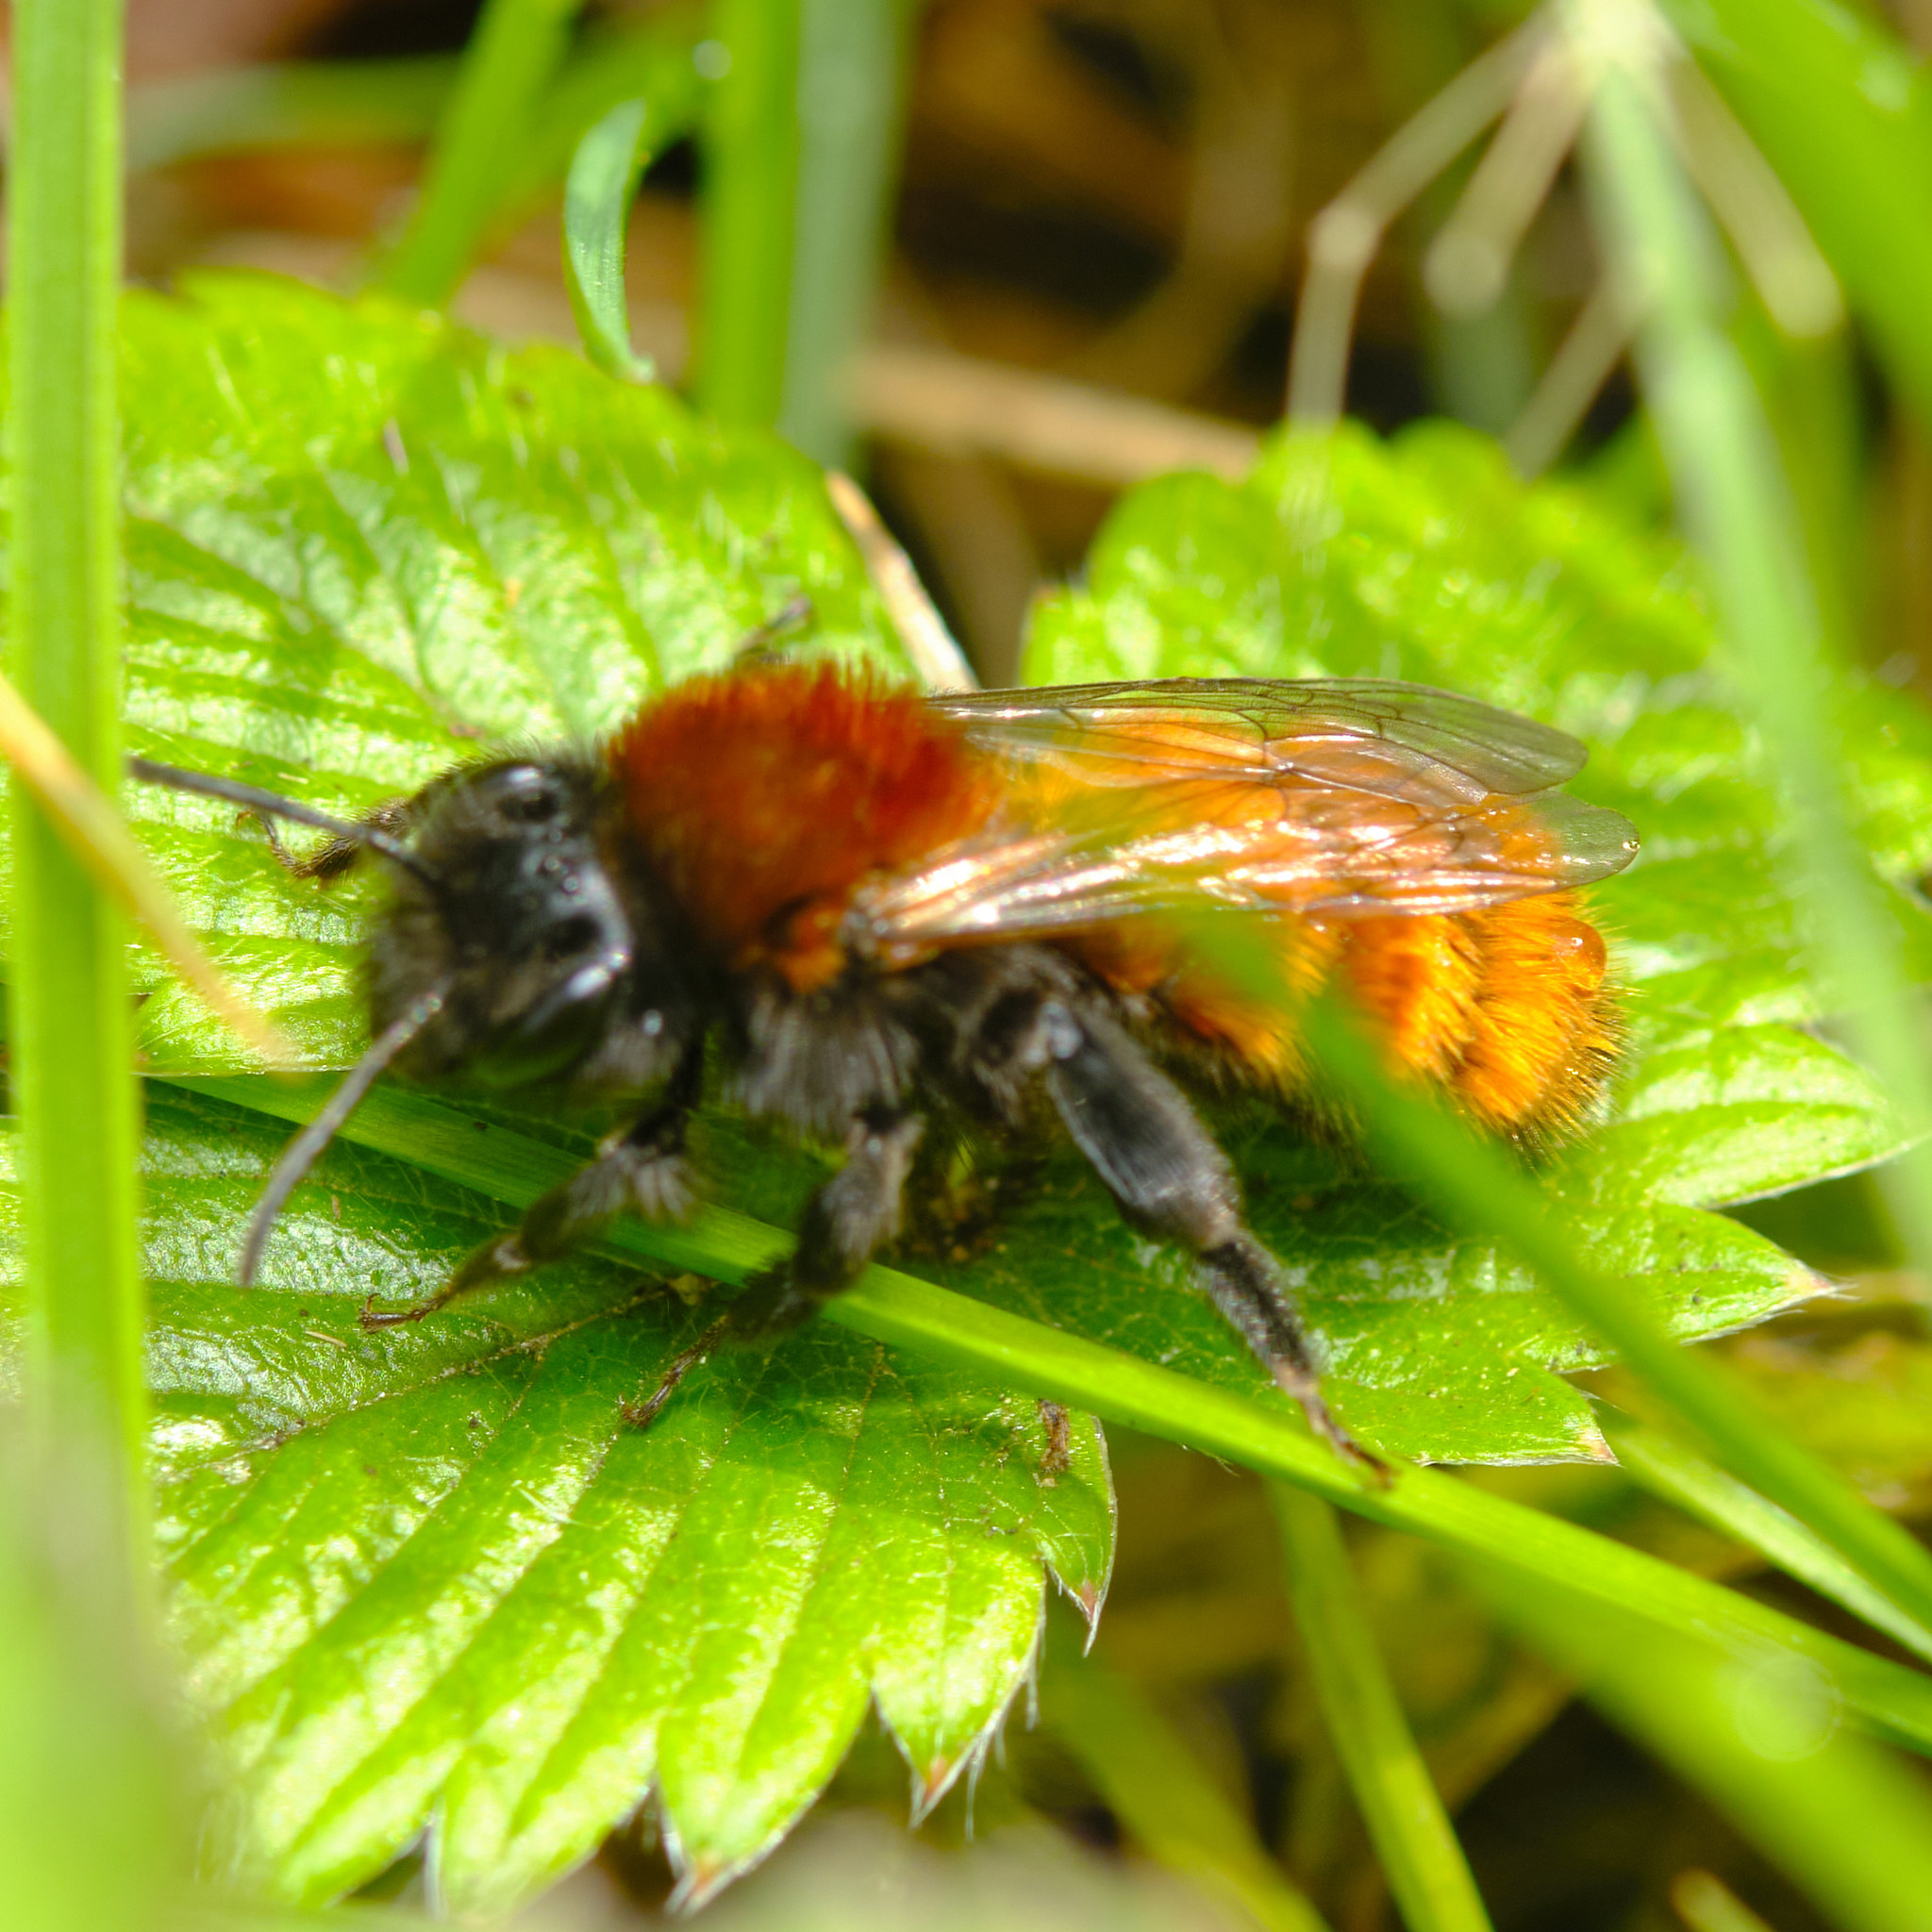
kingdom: Animalia
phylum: Arthropoda
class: Insecta
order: Hymenoptera
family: Andrenidae
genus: Andrena
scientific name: Andrena fulva
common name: Tawny mining bee
